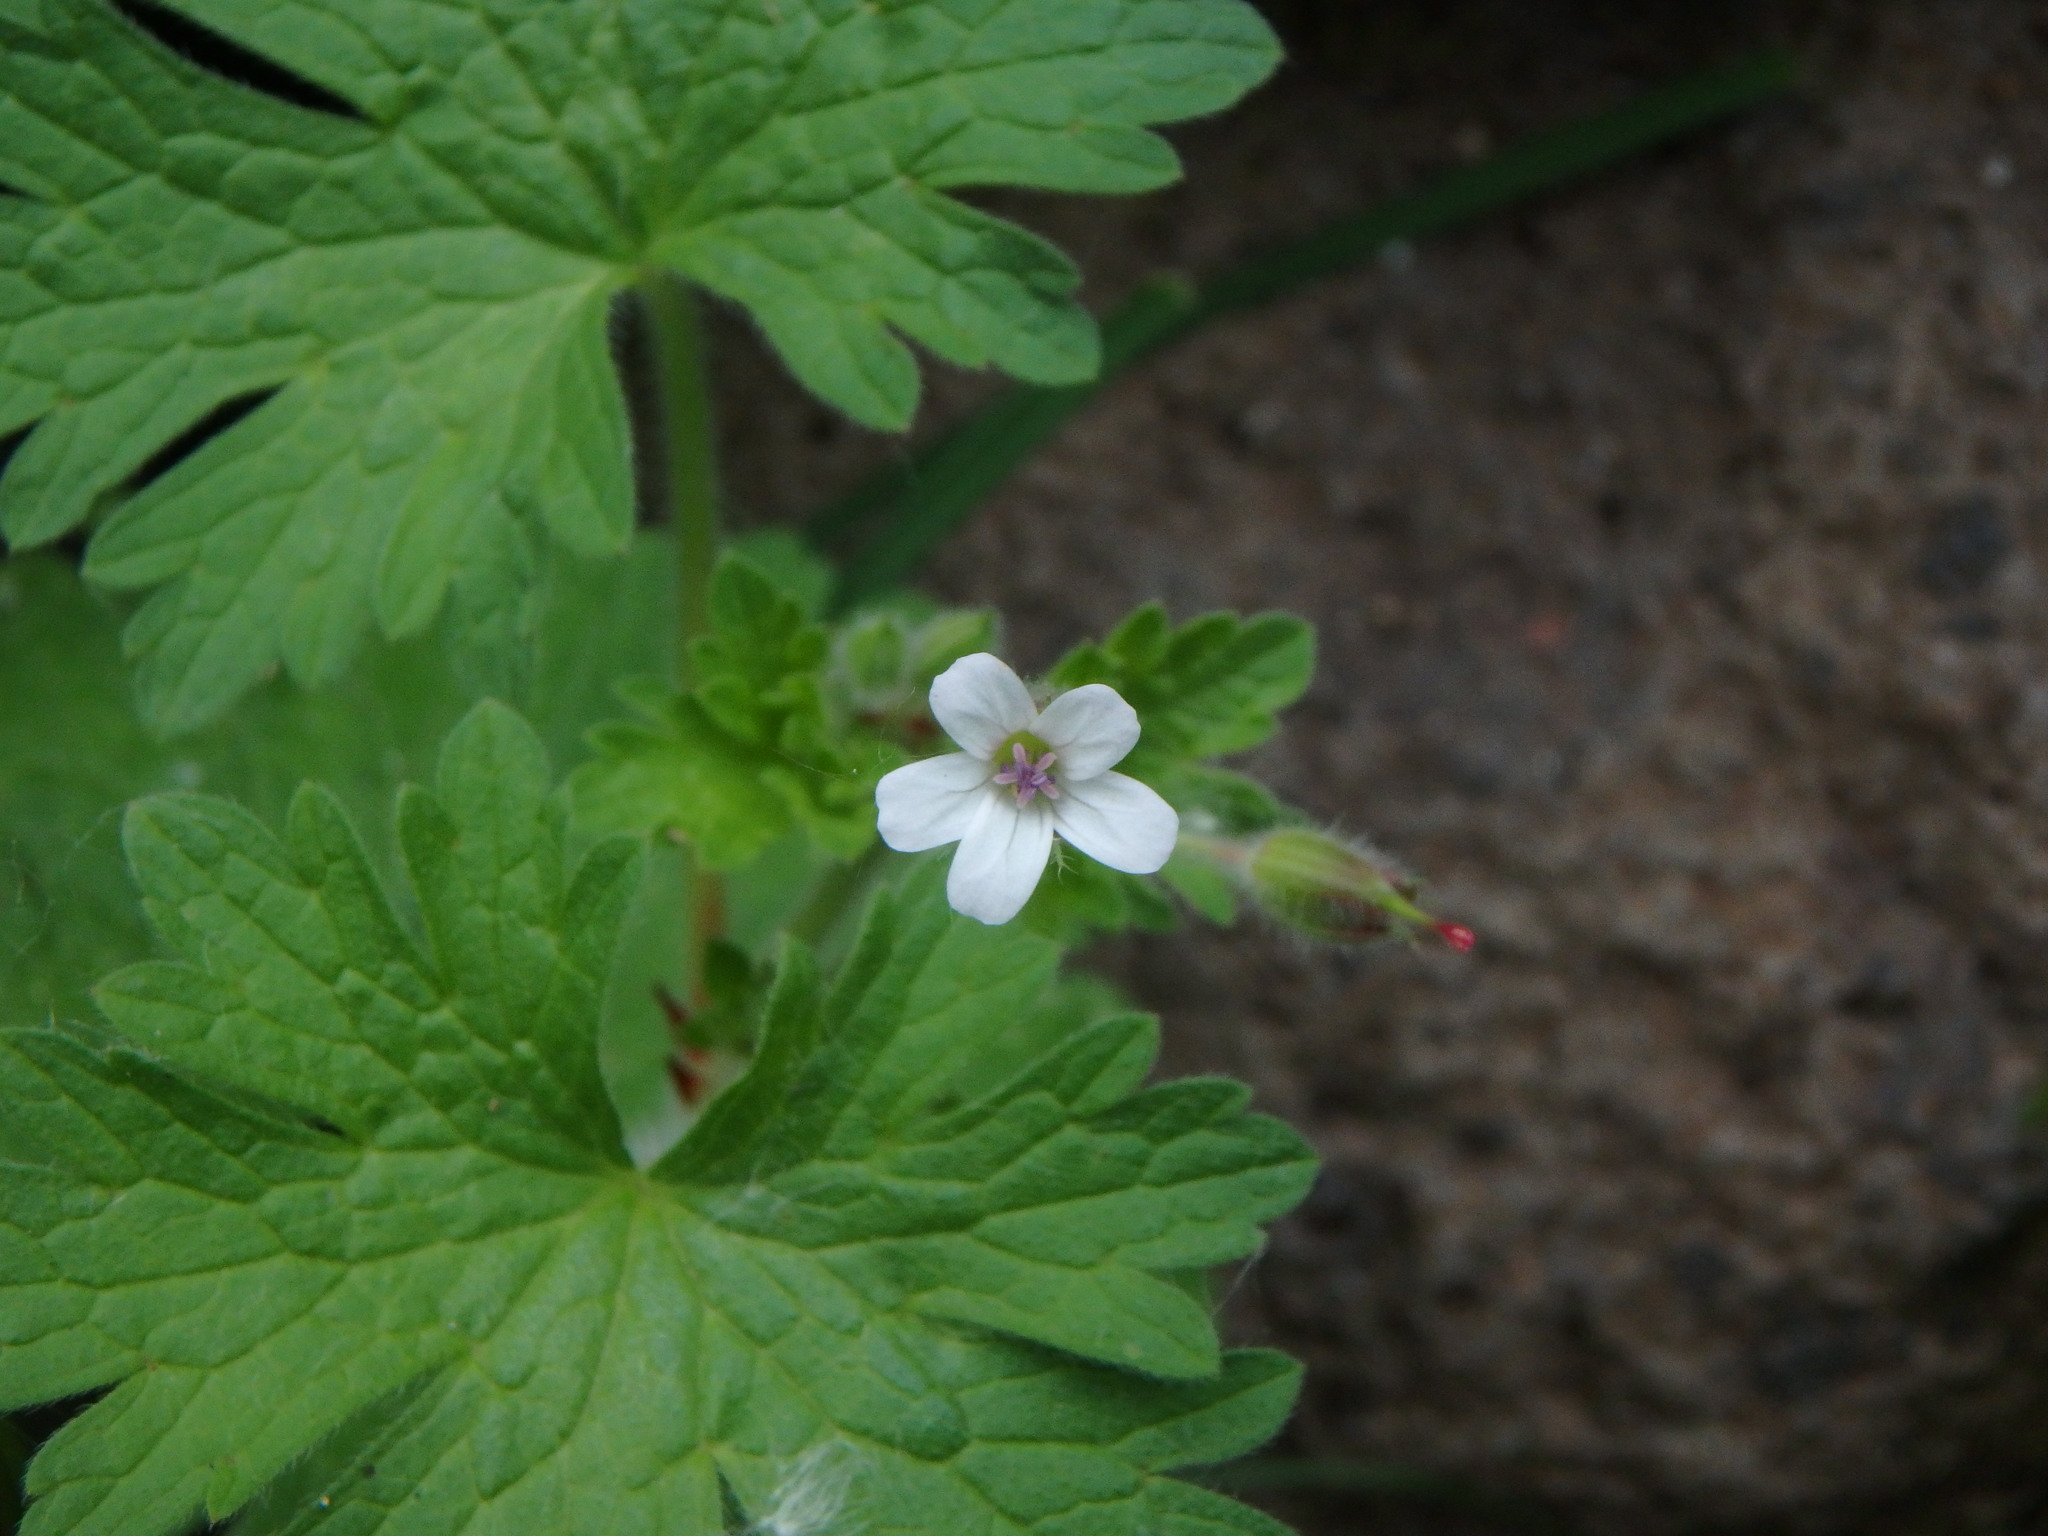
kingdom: Plantae
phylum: Tracheophyta
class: Magnoliopsida
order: Geraniales
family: Geraniaceae
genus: Geranium
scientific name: Geranium rotundifolium
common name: Round-leaved crane's-bill
